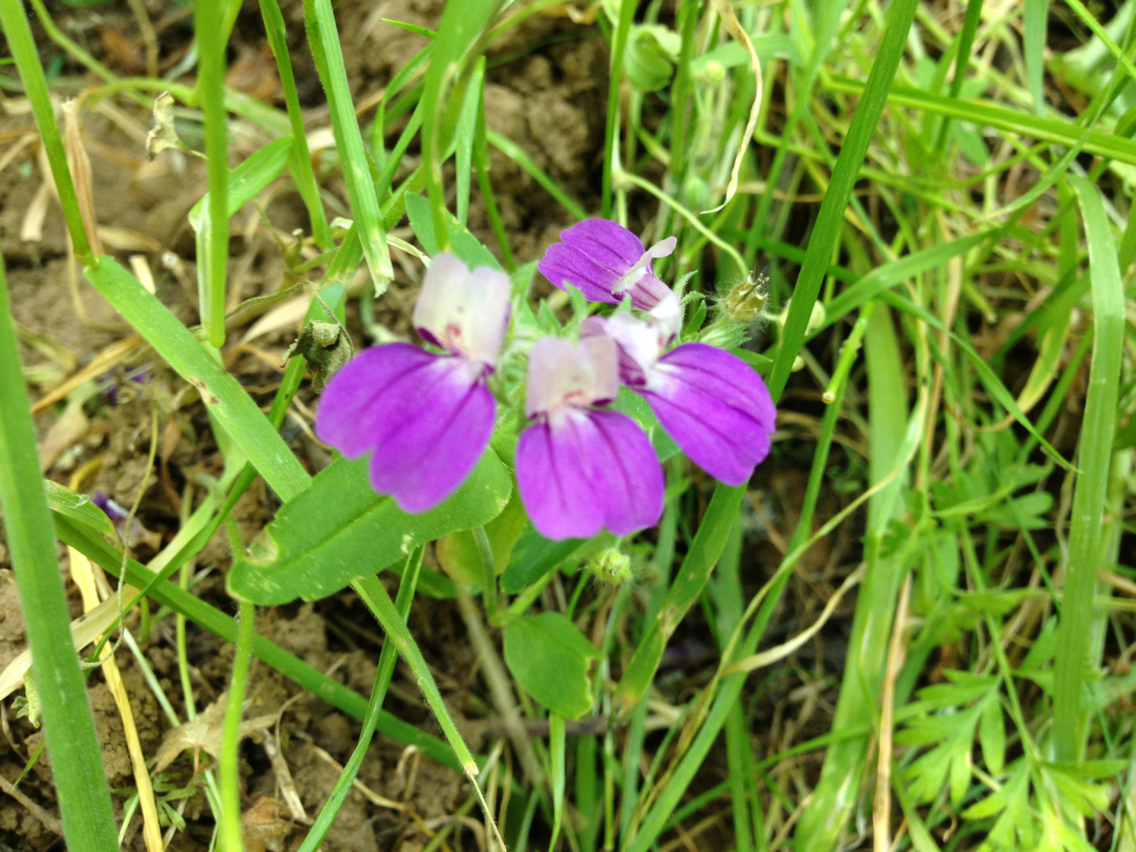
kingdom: Plantae
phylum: Tracheophyta
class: Magnoliopsida
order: Lamiales
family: Plantaginaceae
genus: Collinsia
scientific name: Collinsia heterophylla
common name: Chinese-houses
